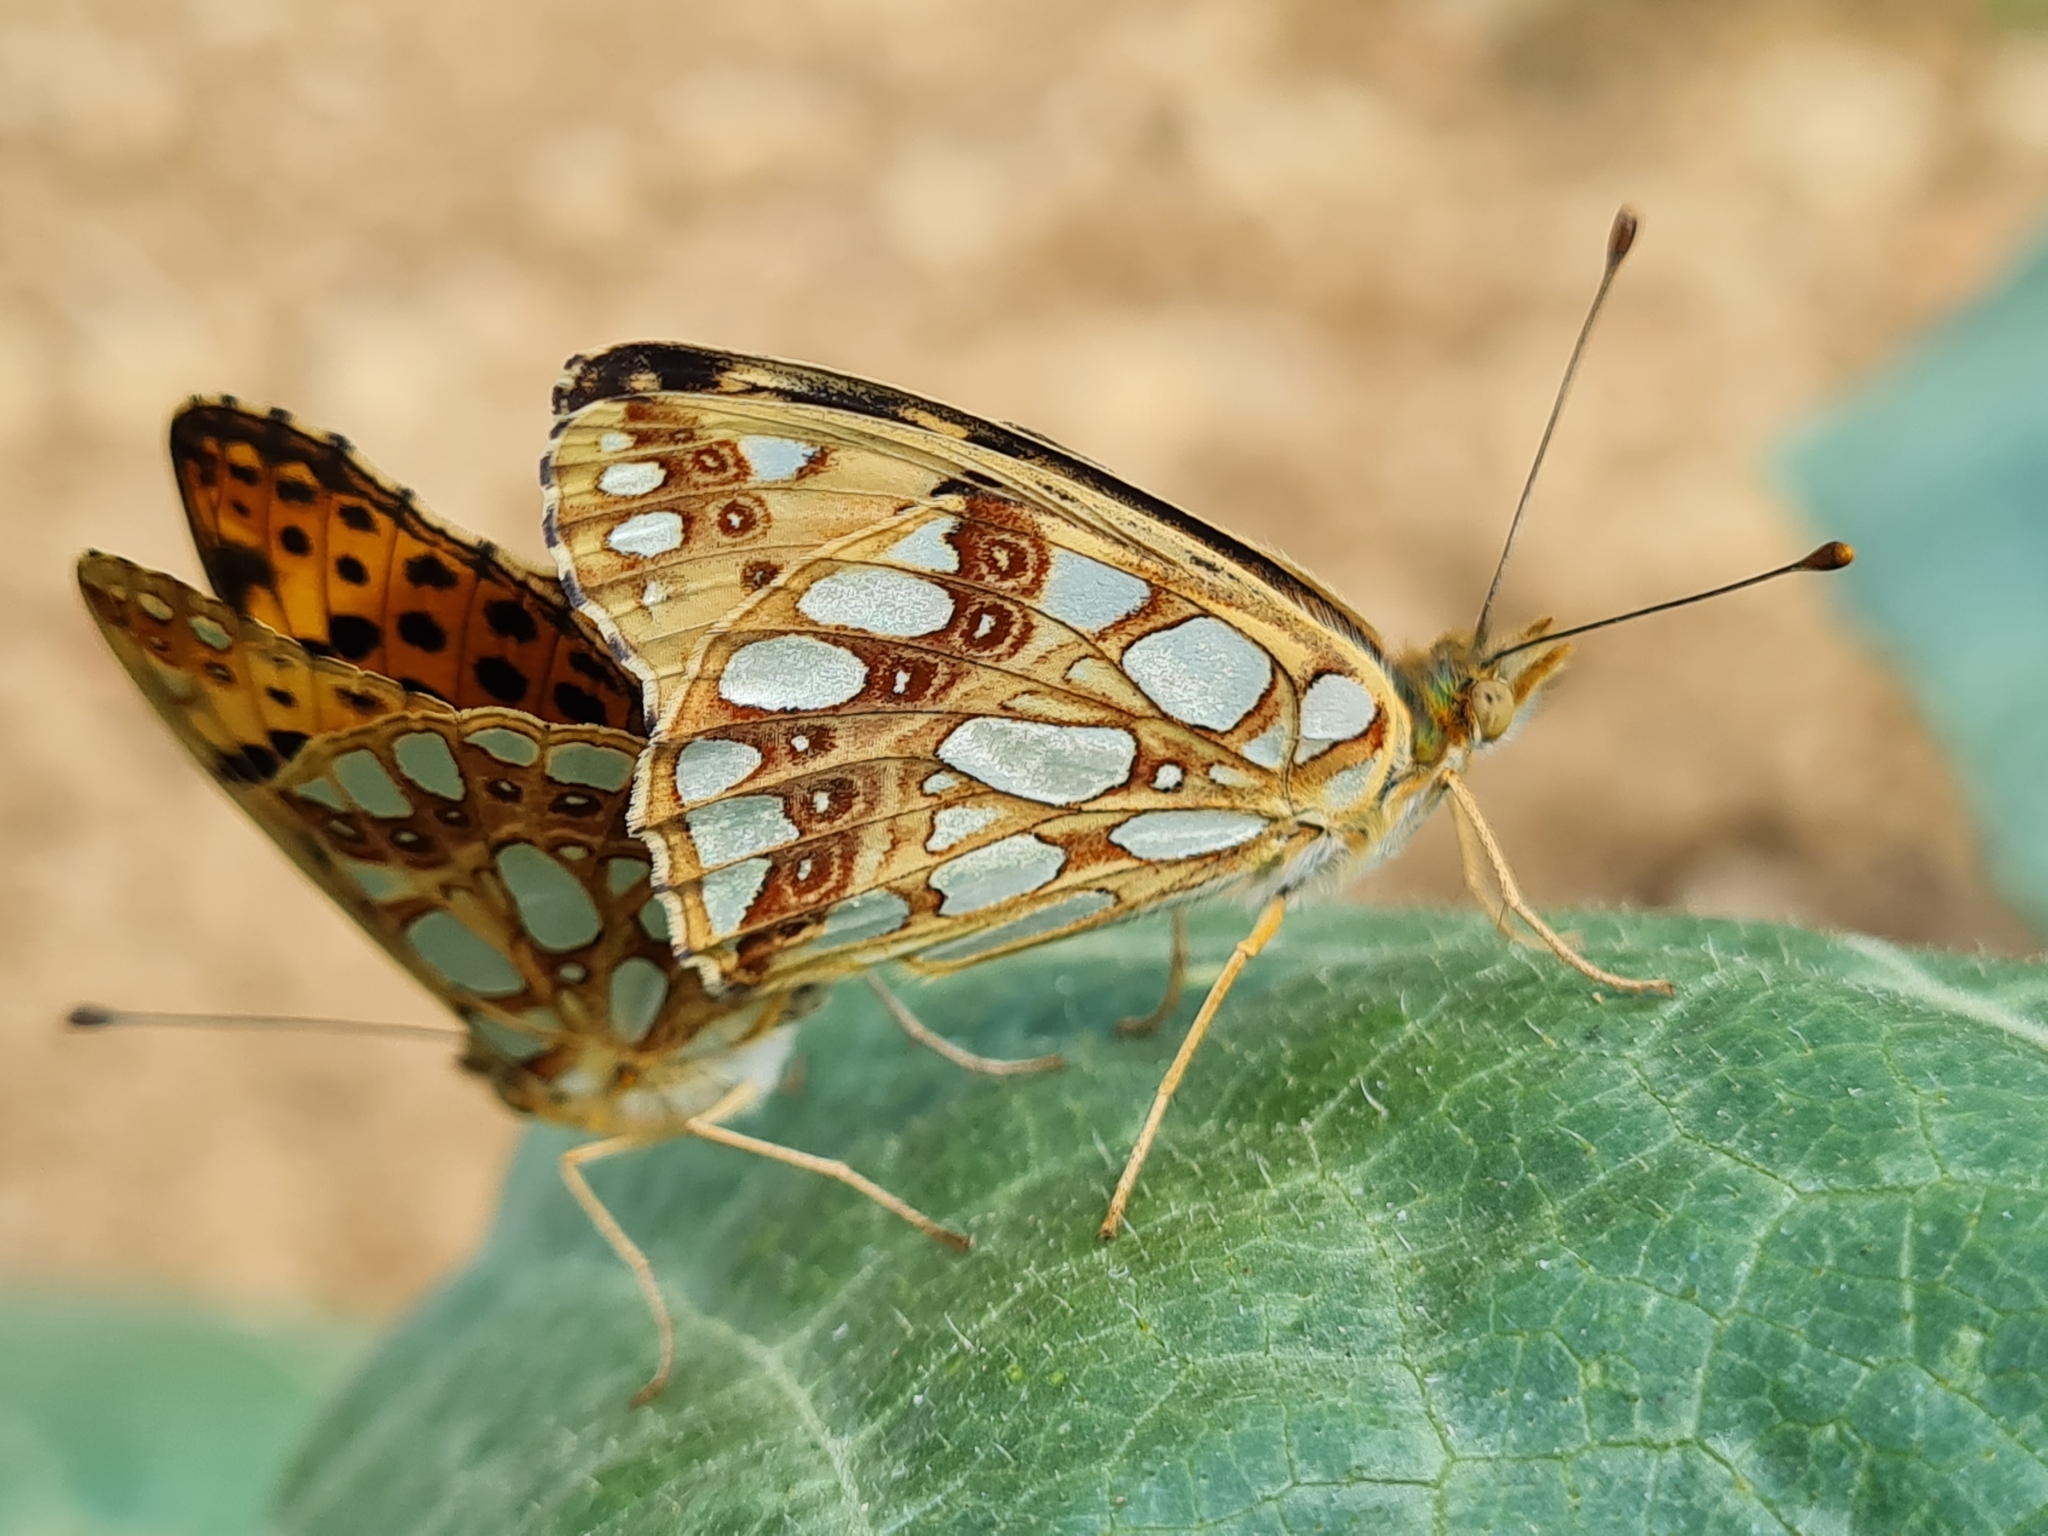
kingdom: Animalia
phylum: Arthropoda
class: Insecta
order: Lepidoptera
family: Nymphalidae
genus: Issoria
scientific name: Issoria lathonia
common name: Queen of spain fritillary
